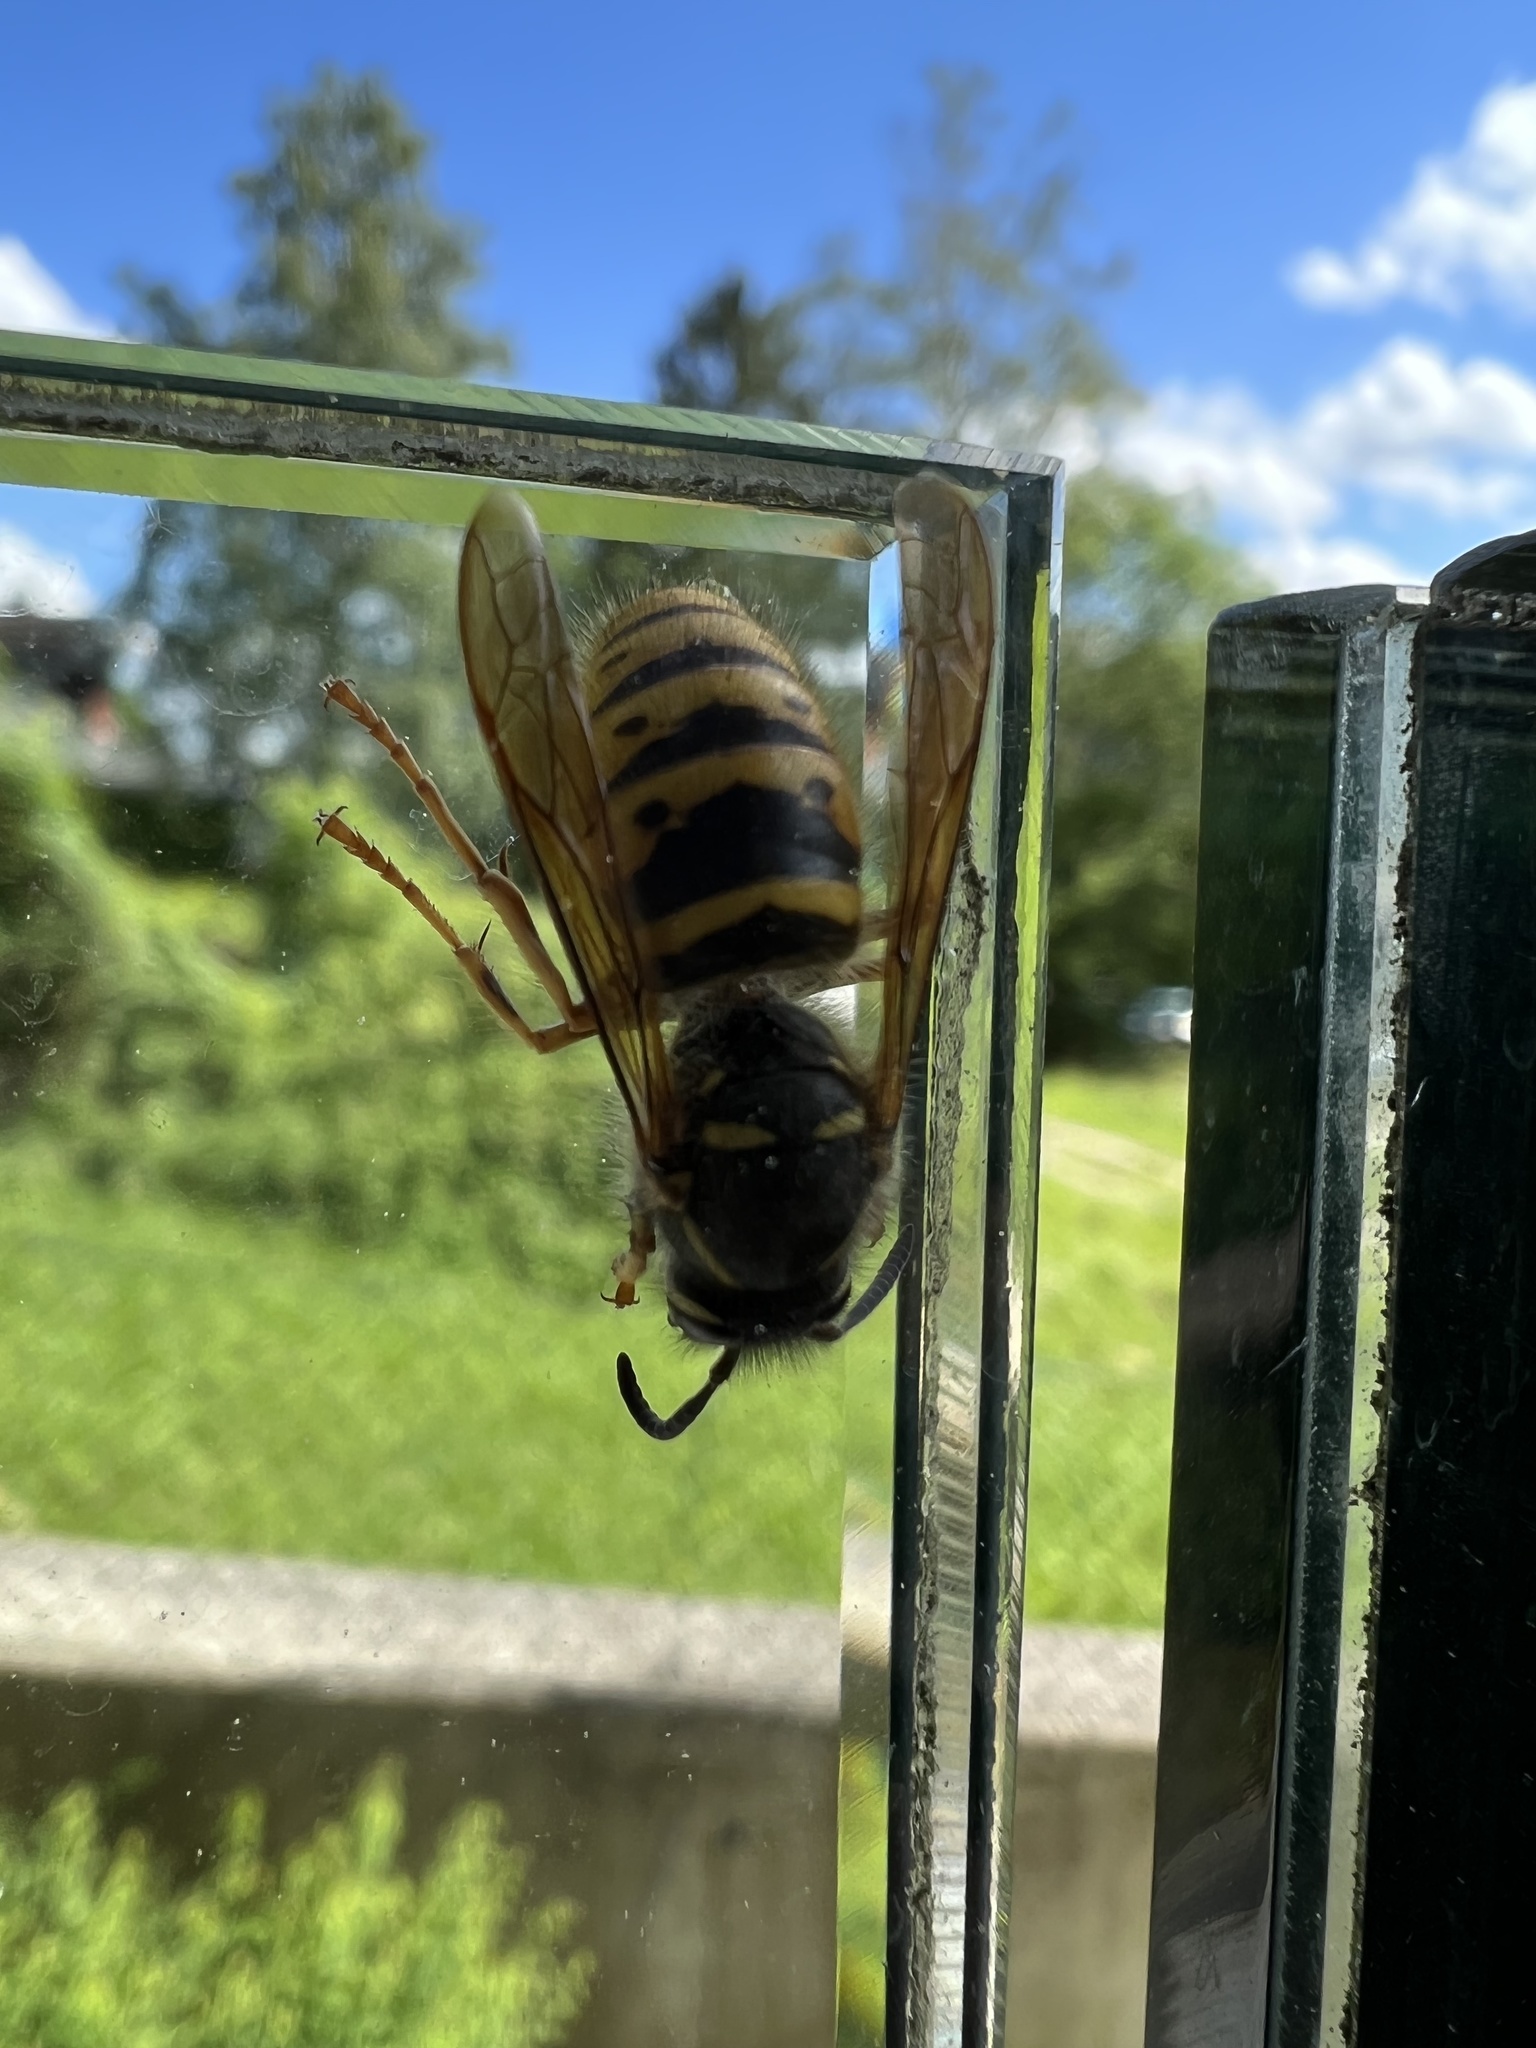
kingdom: Animalia
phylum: Arthropoda
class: Insecta
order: Hymenoptera
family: Vespidae
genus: Dolichovespula
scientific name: Dolichovespula saxonica
